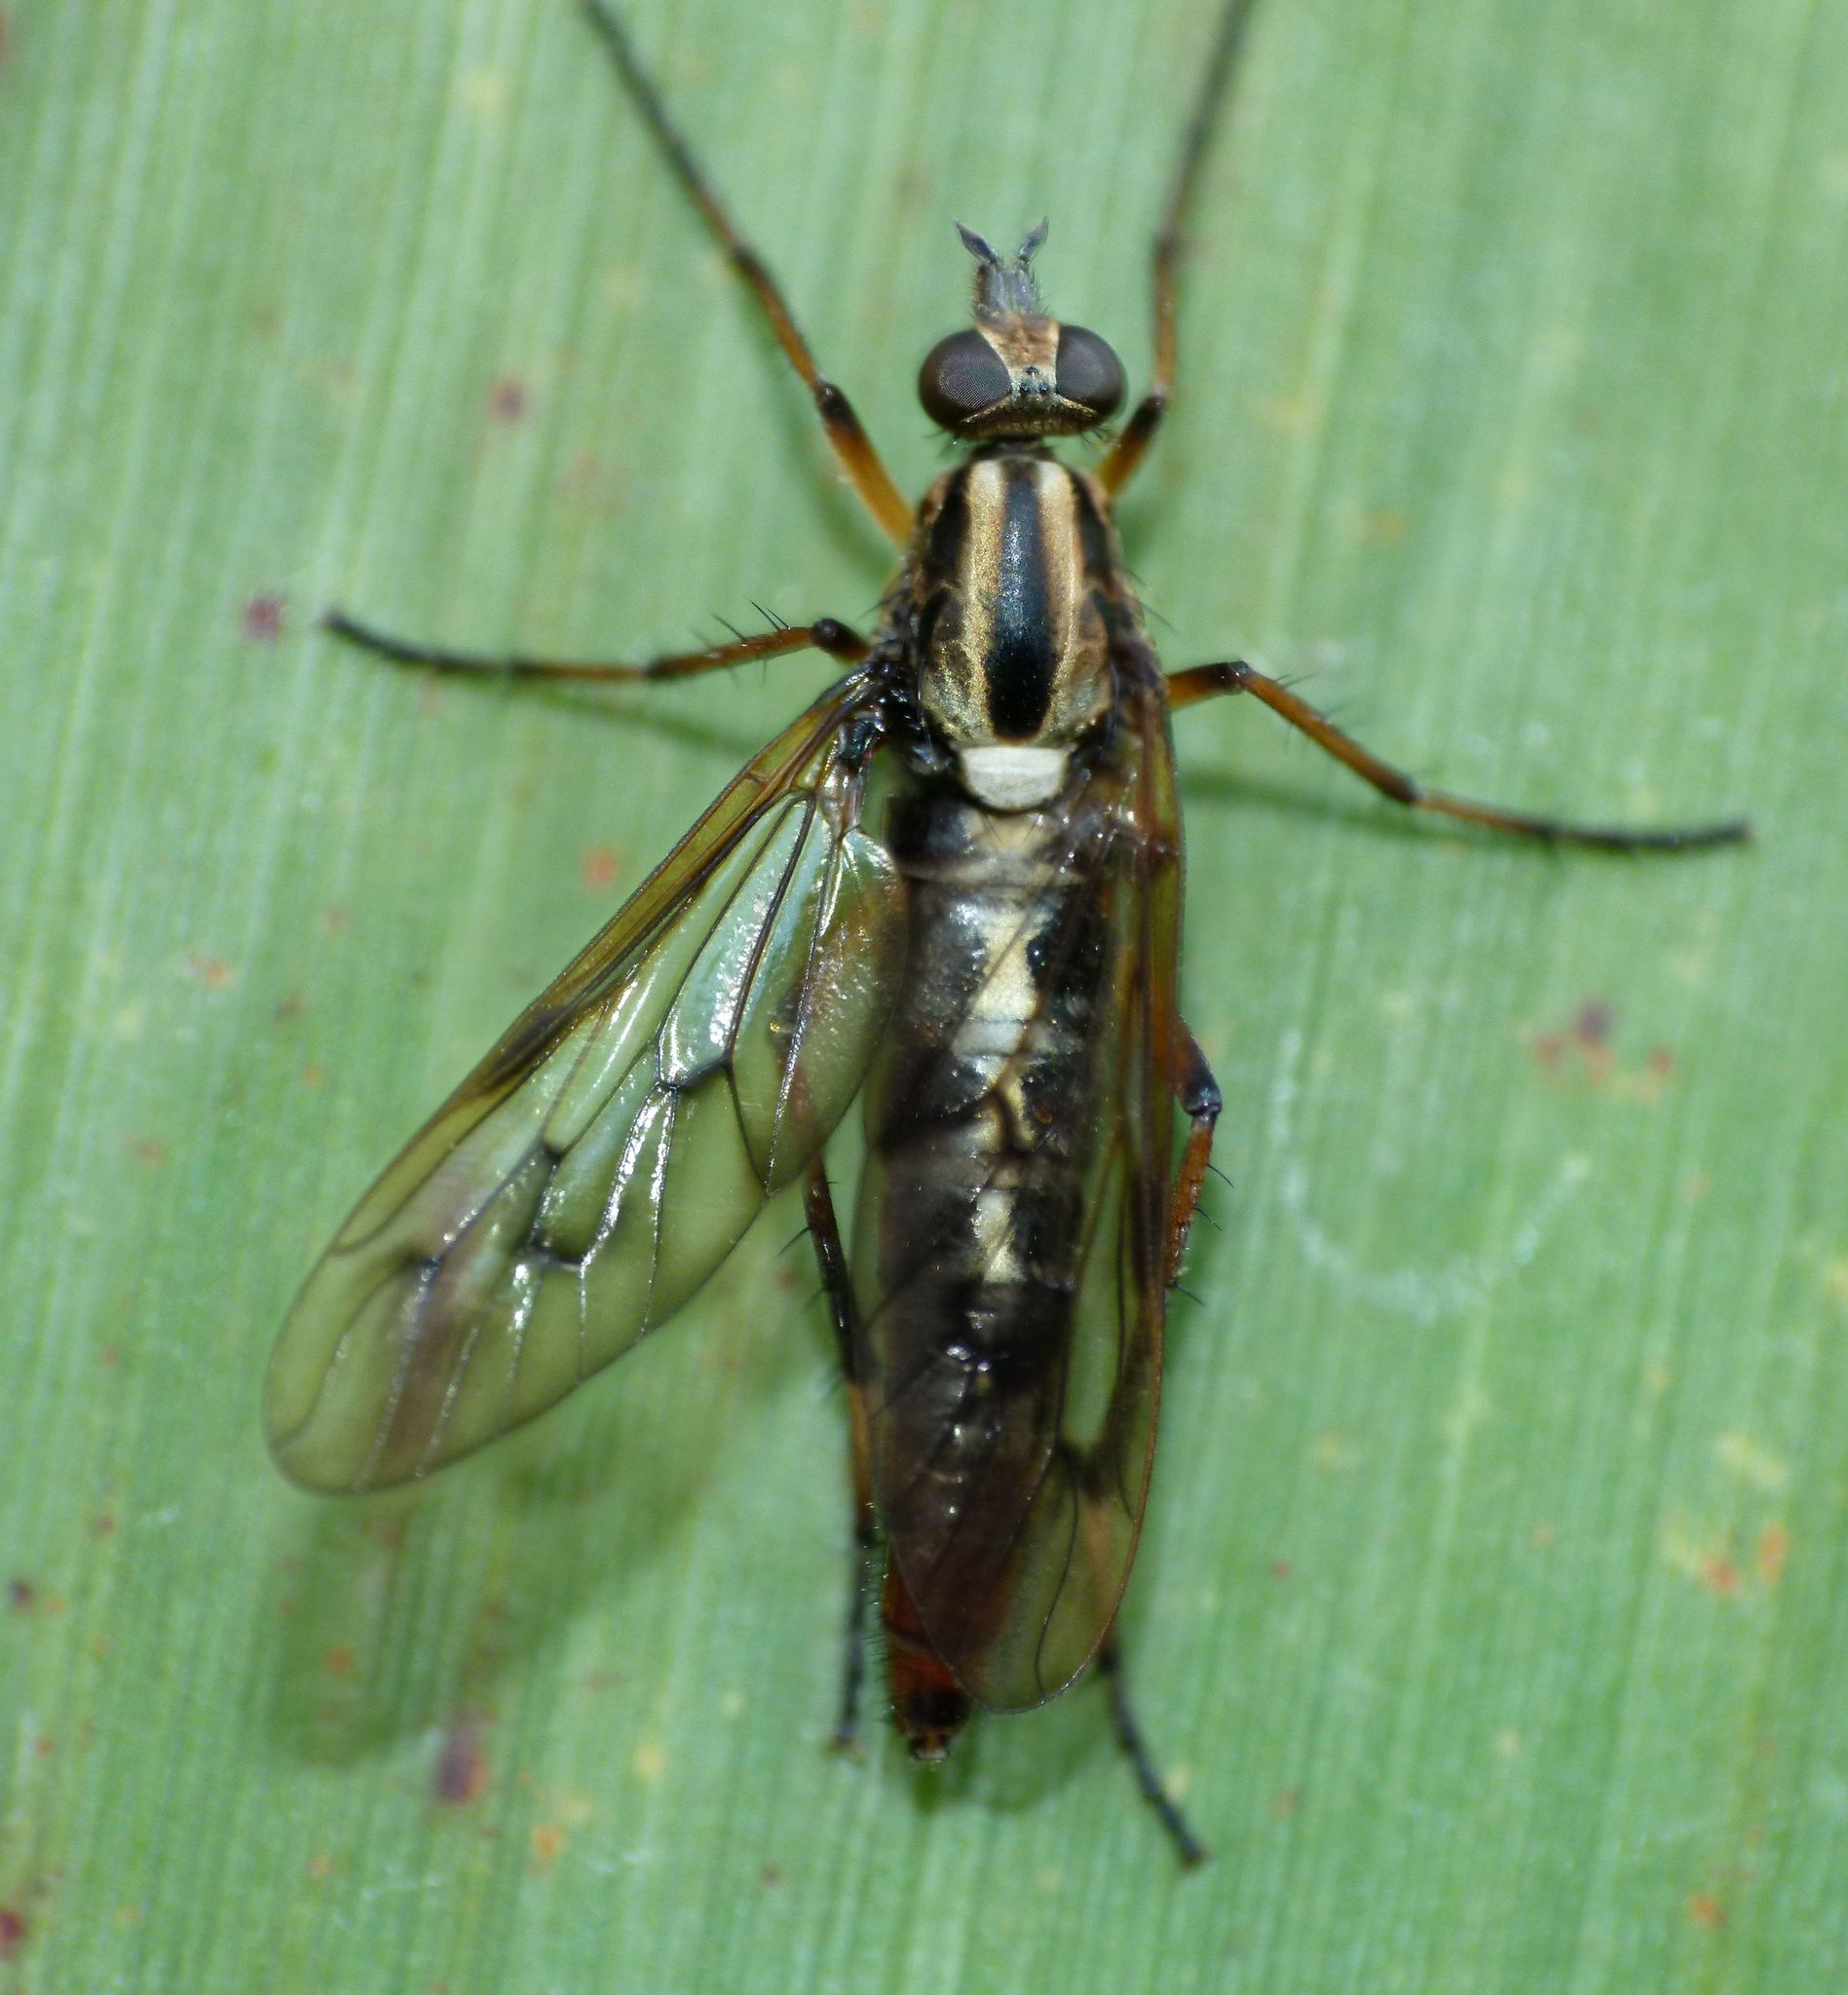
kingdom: Animalia
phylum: Arthropoda
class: Insecta
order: Diptera
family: Therevidae
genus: Anabarhynchus
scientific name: Anabarhynchus micans
